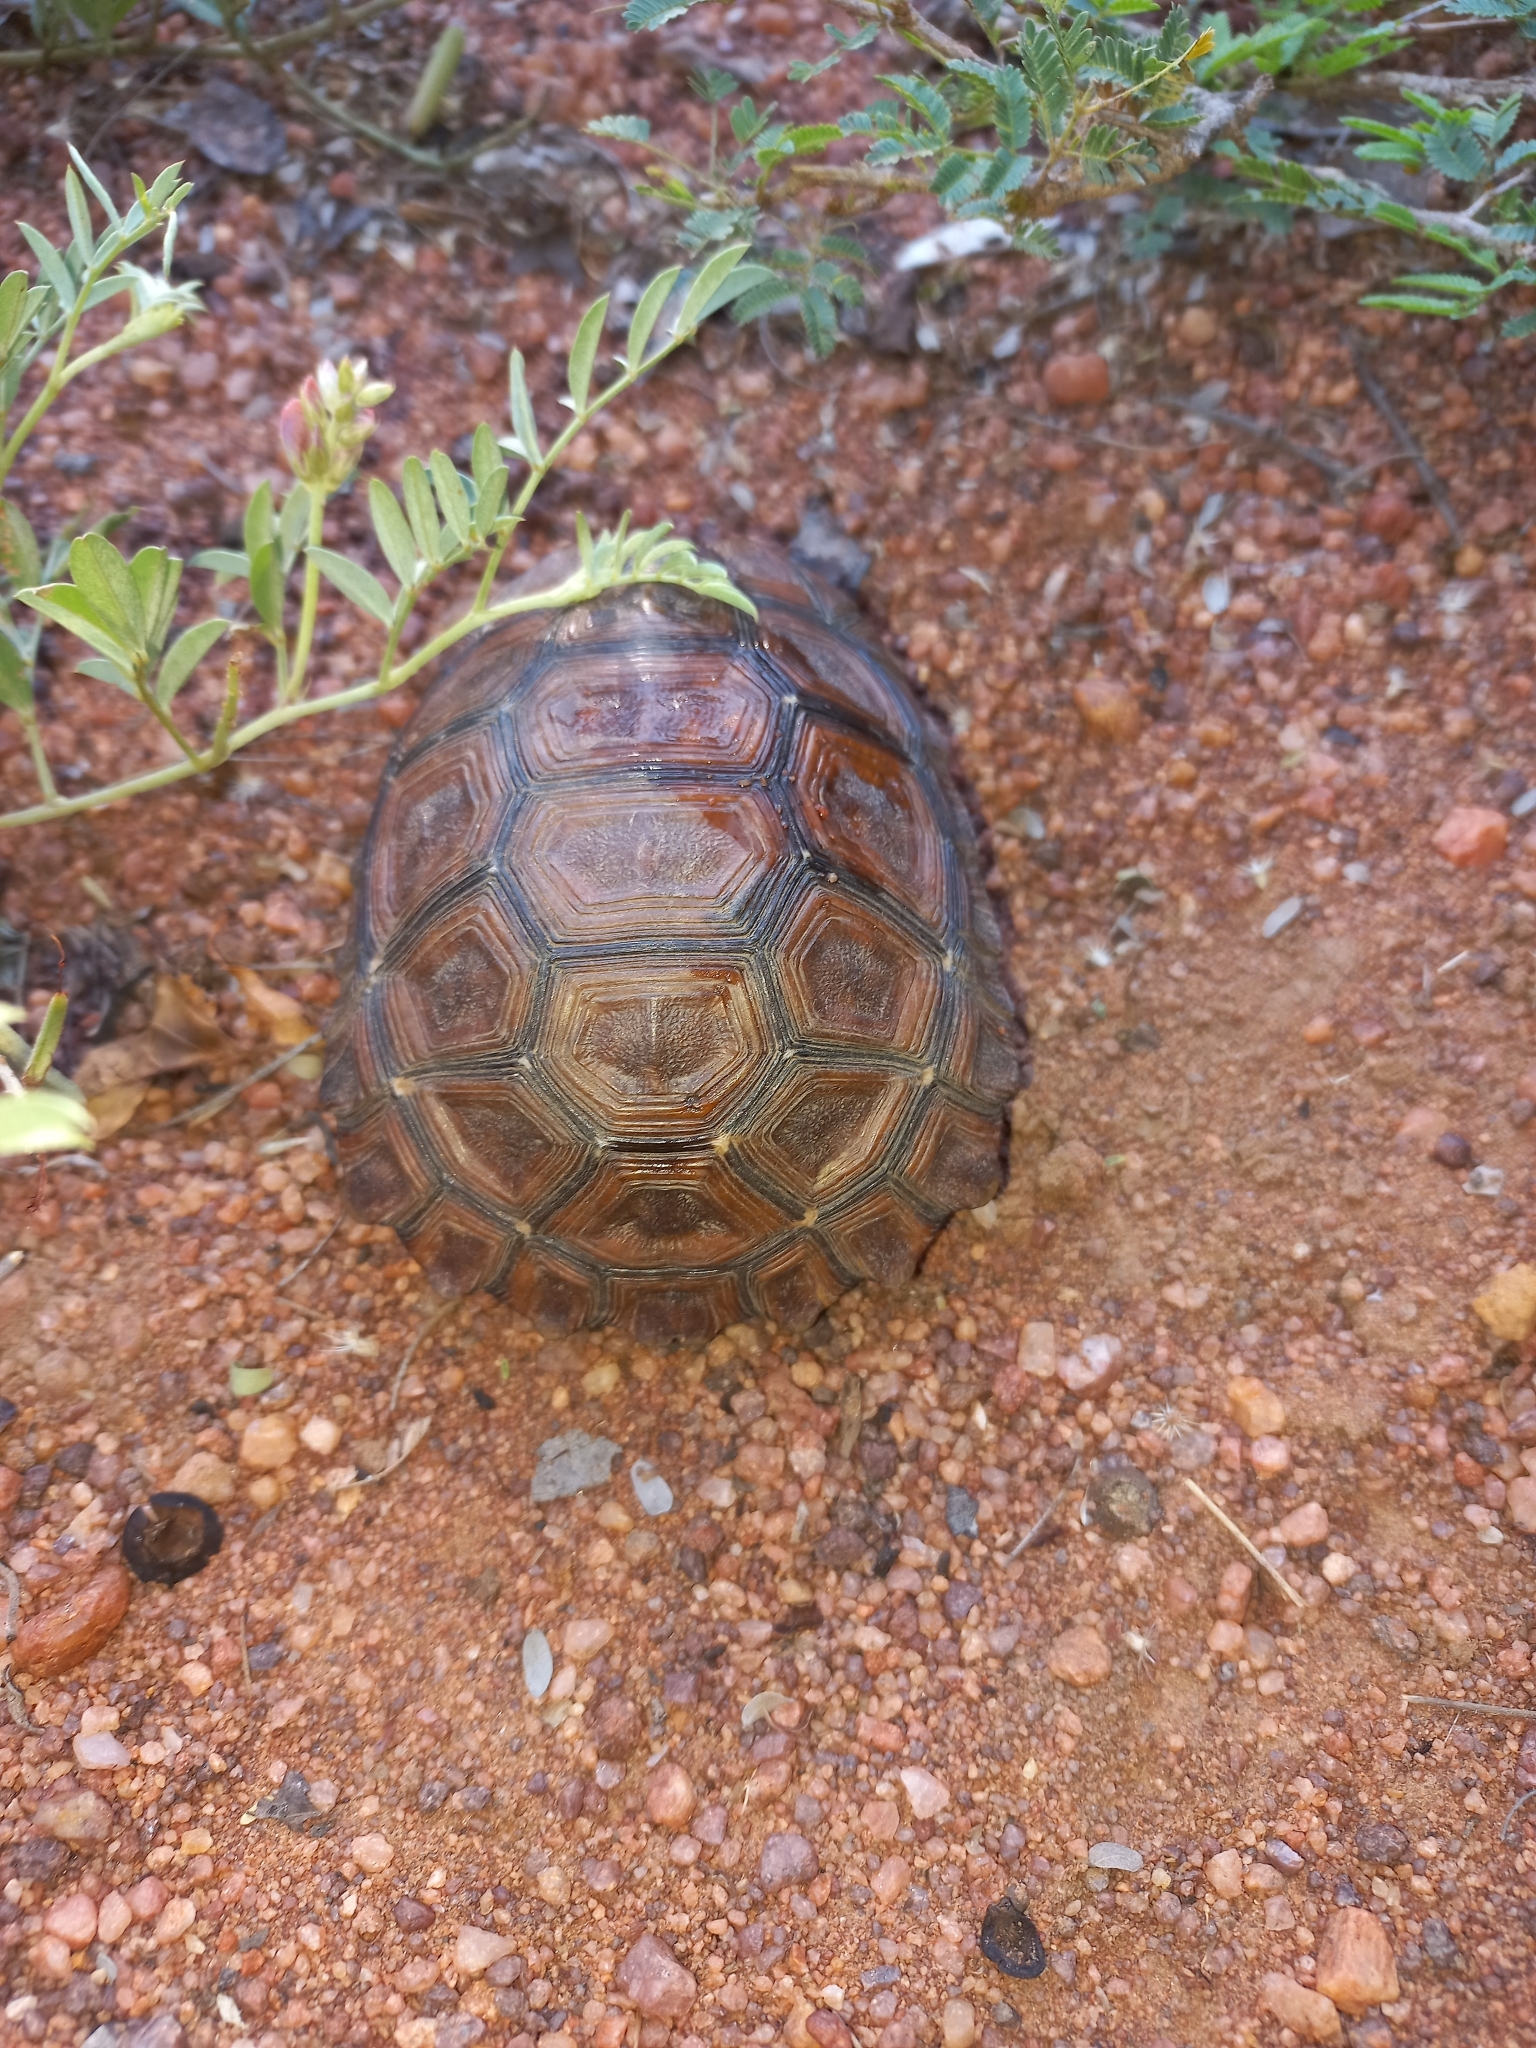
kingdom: Animalia
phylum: Chordata
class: Testudines
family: Testudinidae
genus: Kinixys
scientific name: Kinixys lobatsiana
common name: Lobatse hinge-back tortoise
